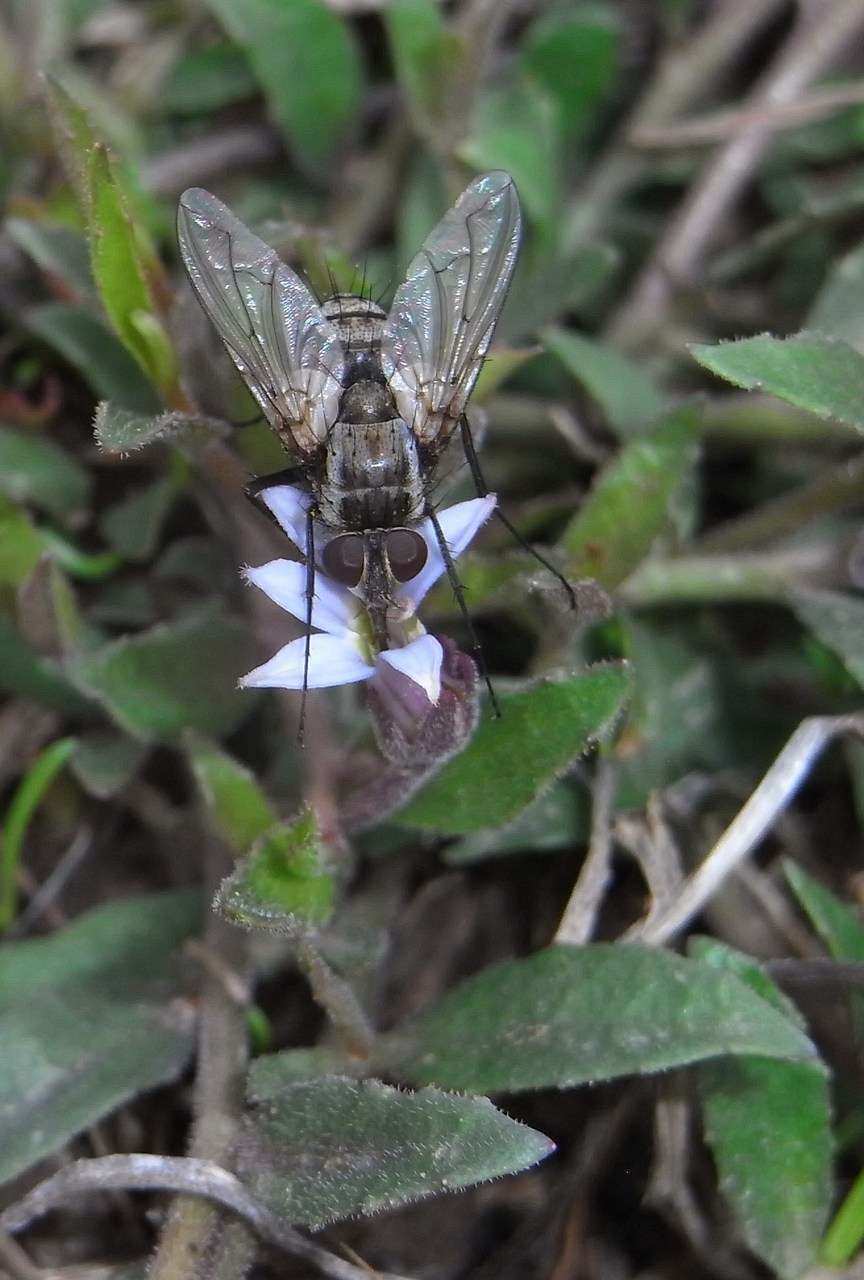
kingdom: Plantae
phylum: Tracheophyta
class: Magnoliopsida
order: Asterales
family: Campanulaceae
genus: Lobelia
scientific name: Lobelia pratioides
